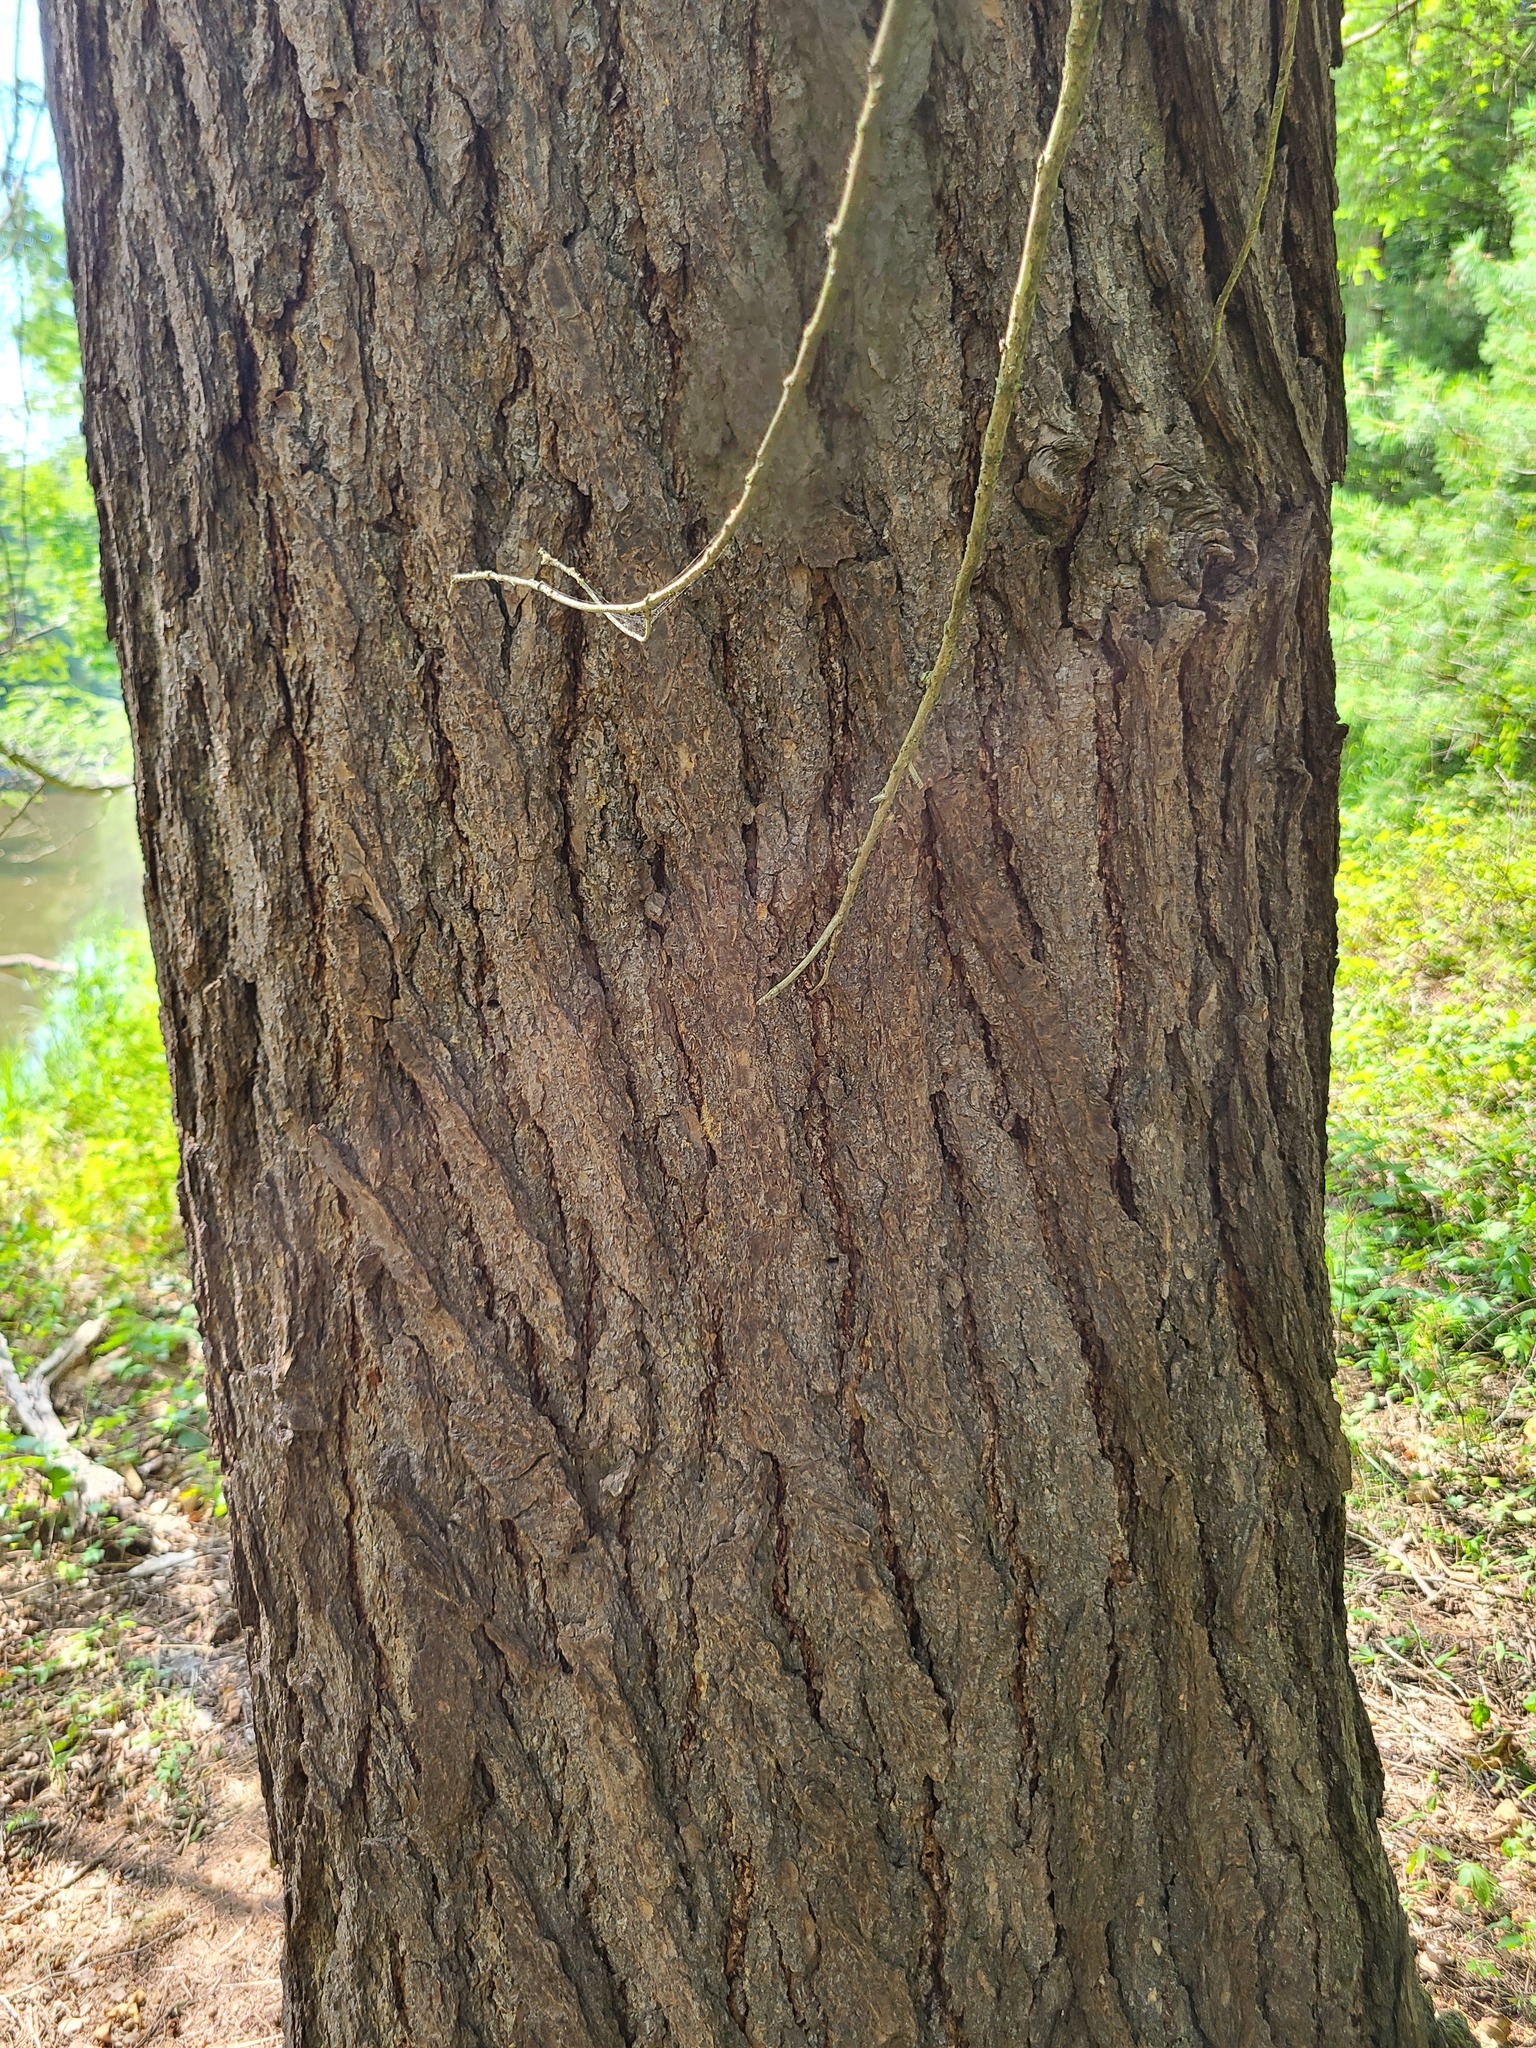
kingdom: Plantae
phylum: Tracheophyta
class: Pinopsida
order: Pinales
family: Pinaceae
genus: Tsuga
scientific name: Tsuga canadensis
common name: Eastern hemlock
